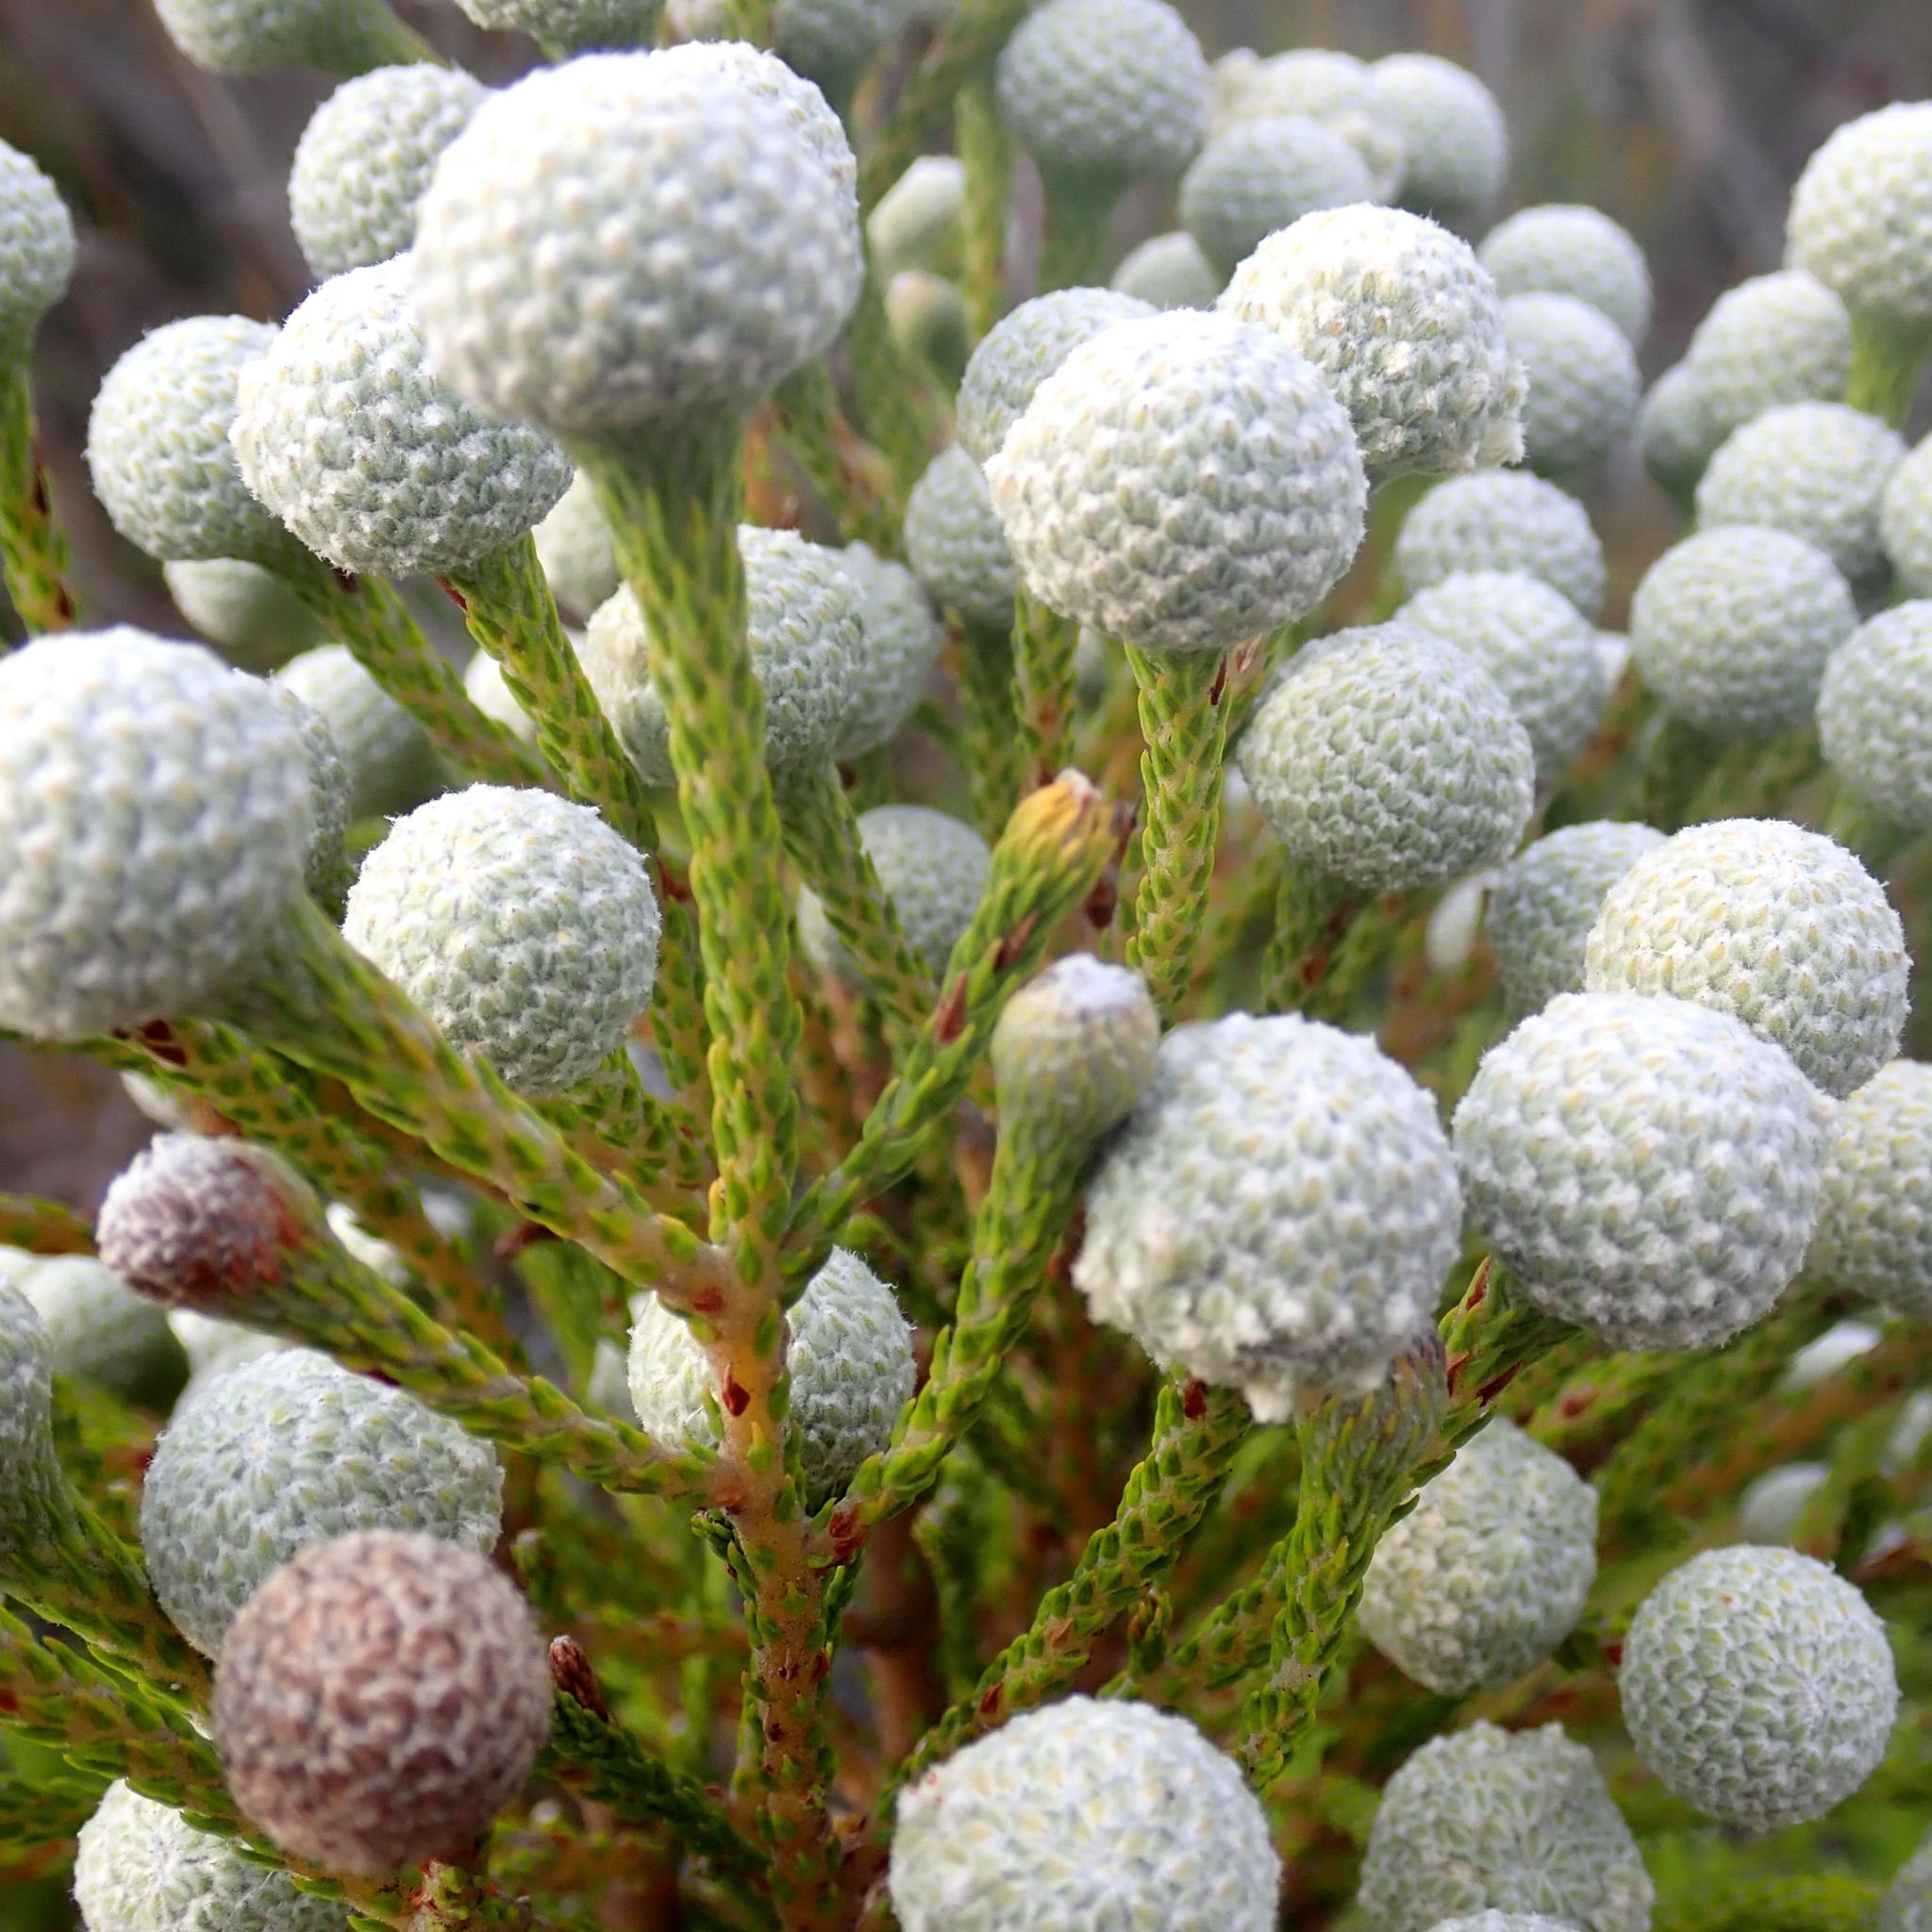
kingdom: Plantae
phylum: Tracheophyta
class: Magnoliopsida
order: Bruniales
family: Bruniaceae
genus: Brunia
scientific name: Brunia noduliflora
